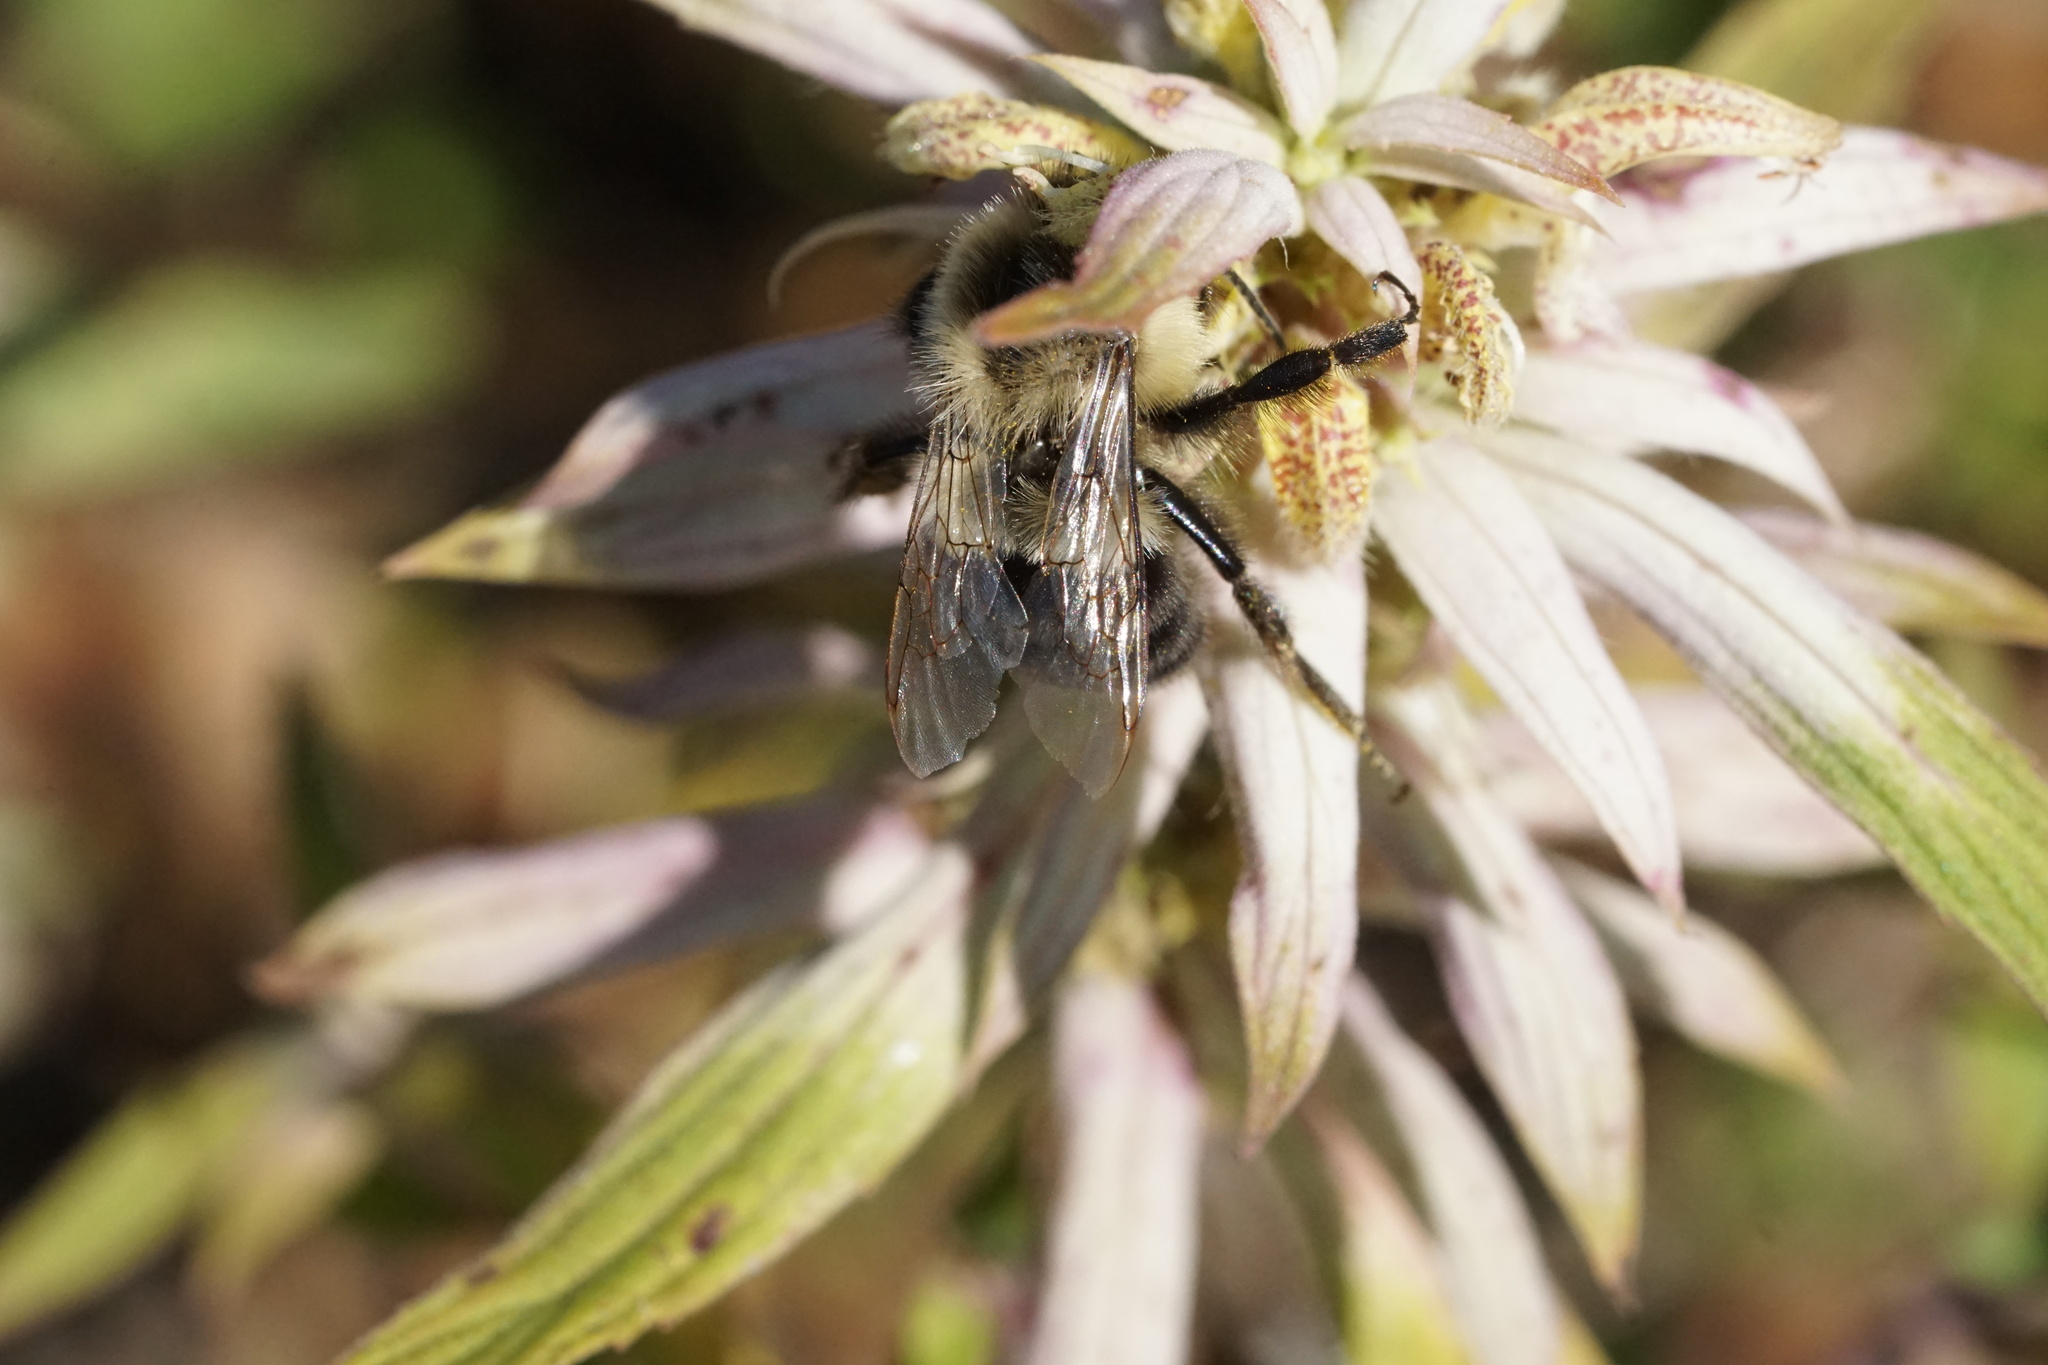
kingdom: Animalia
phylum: Arthropoda
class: Insecta
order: Hymenoptera
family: Apidae
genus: Bombus
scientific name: Bombus impatiens
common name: Common eastern bumble bee
